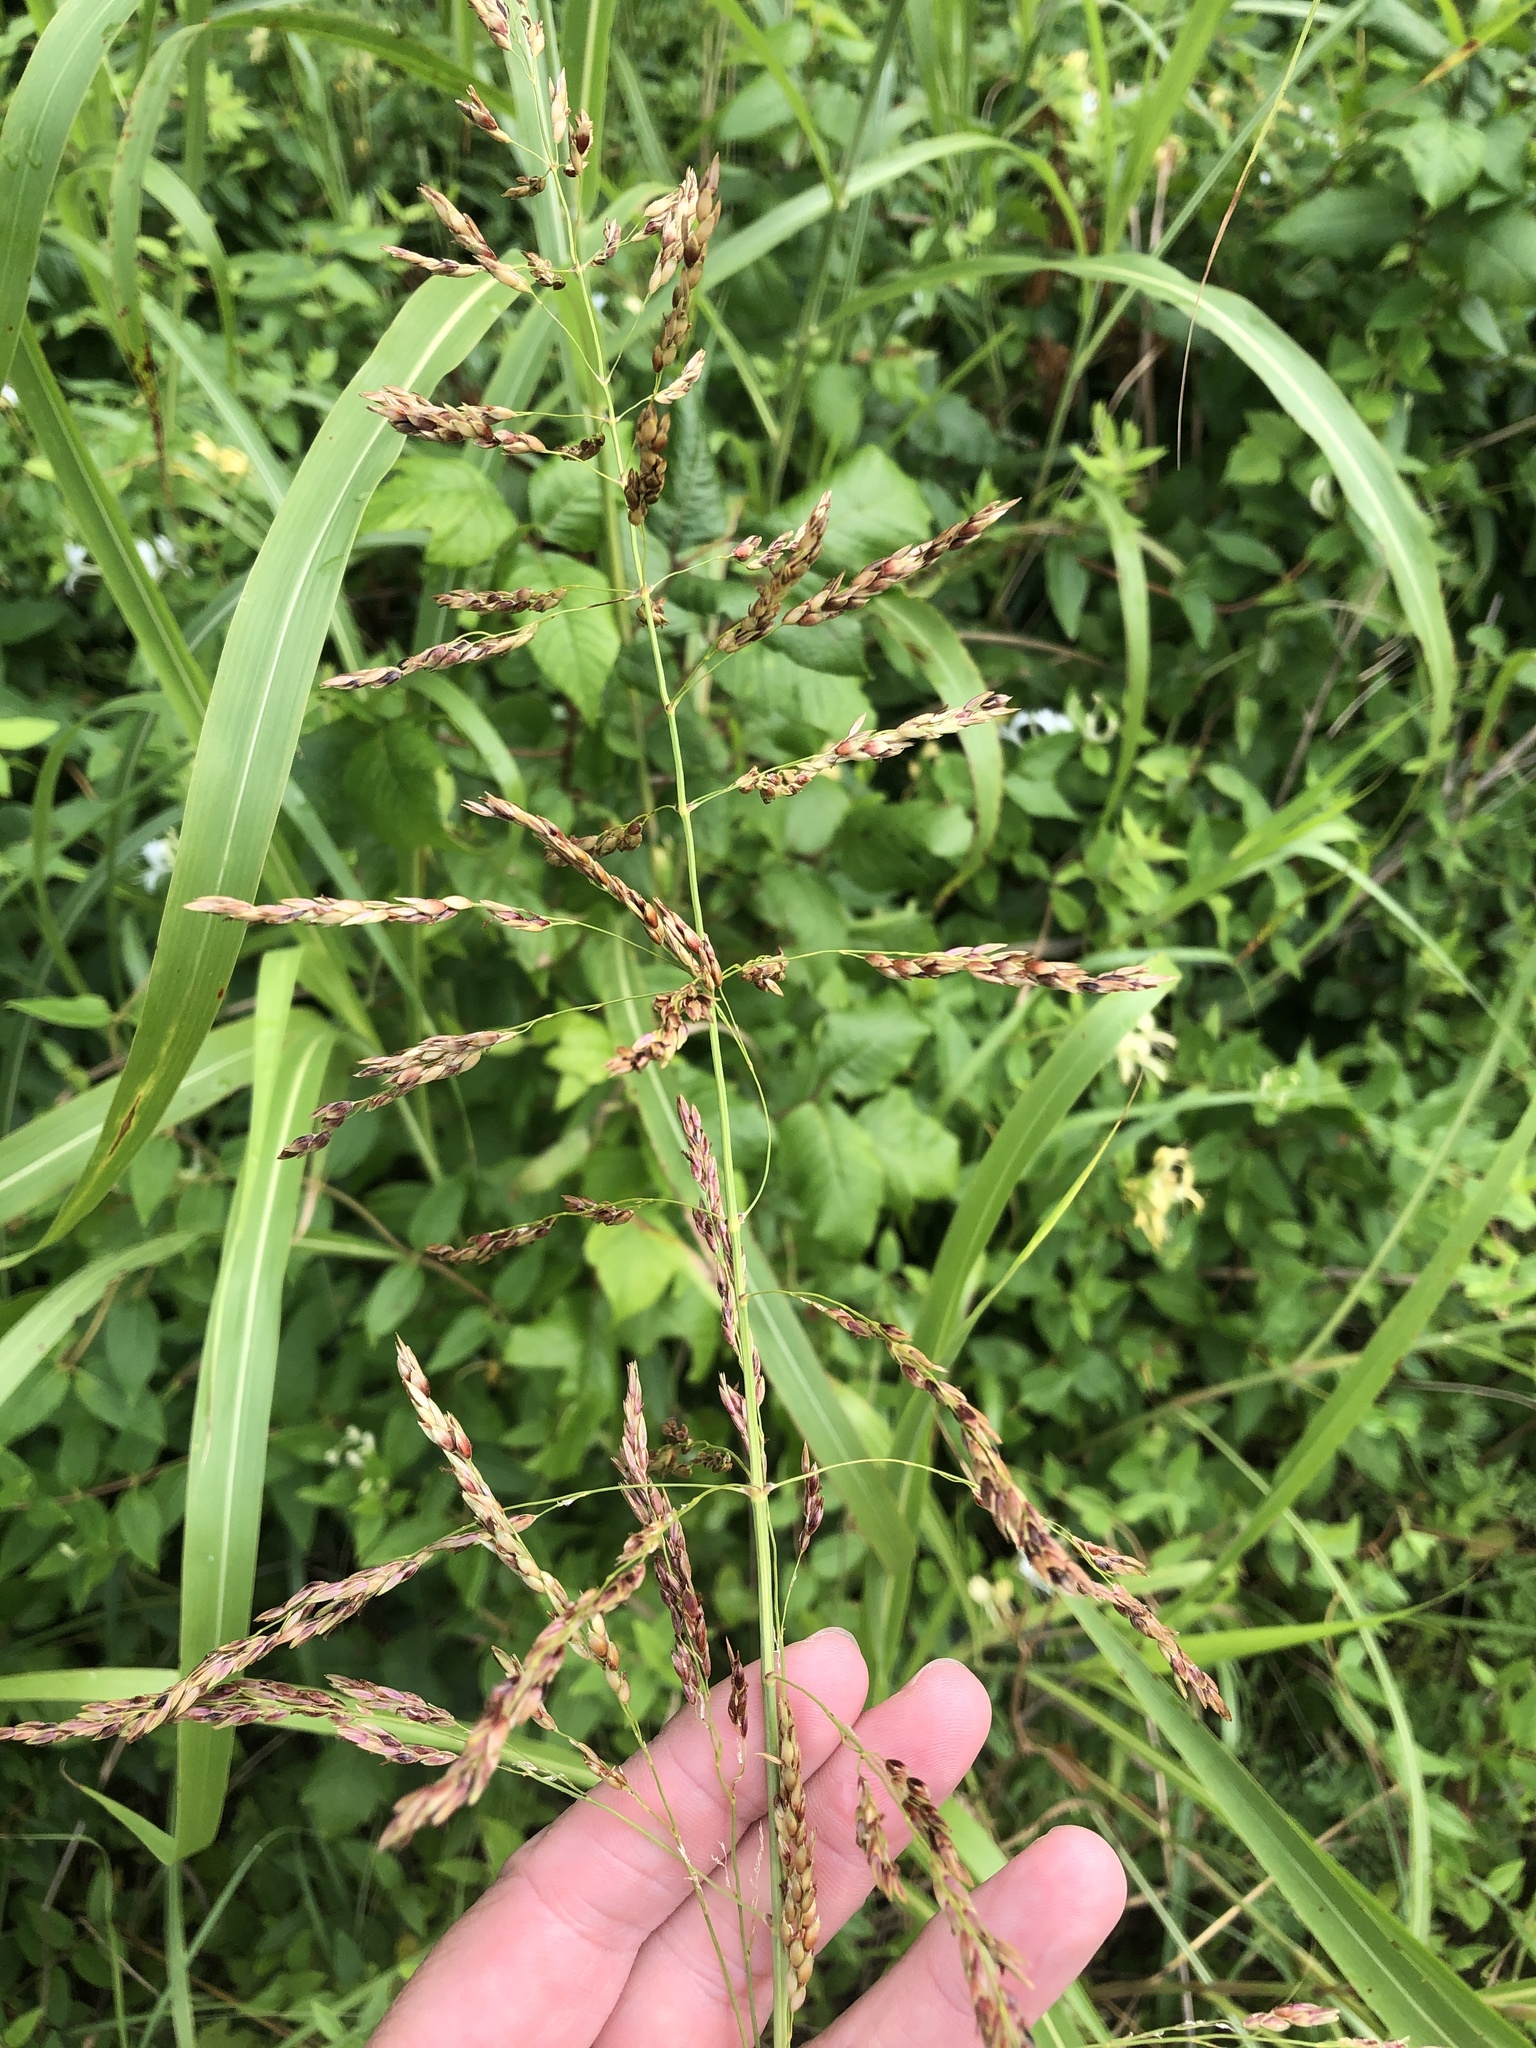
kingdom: Plantae
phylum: Tracheophyta
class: Liliopsida
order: Poales
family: Poaceae
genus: Sorghum
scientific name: Sorghum halepense
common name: Johnson-grass
